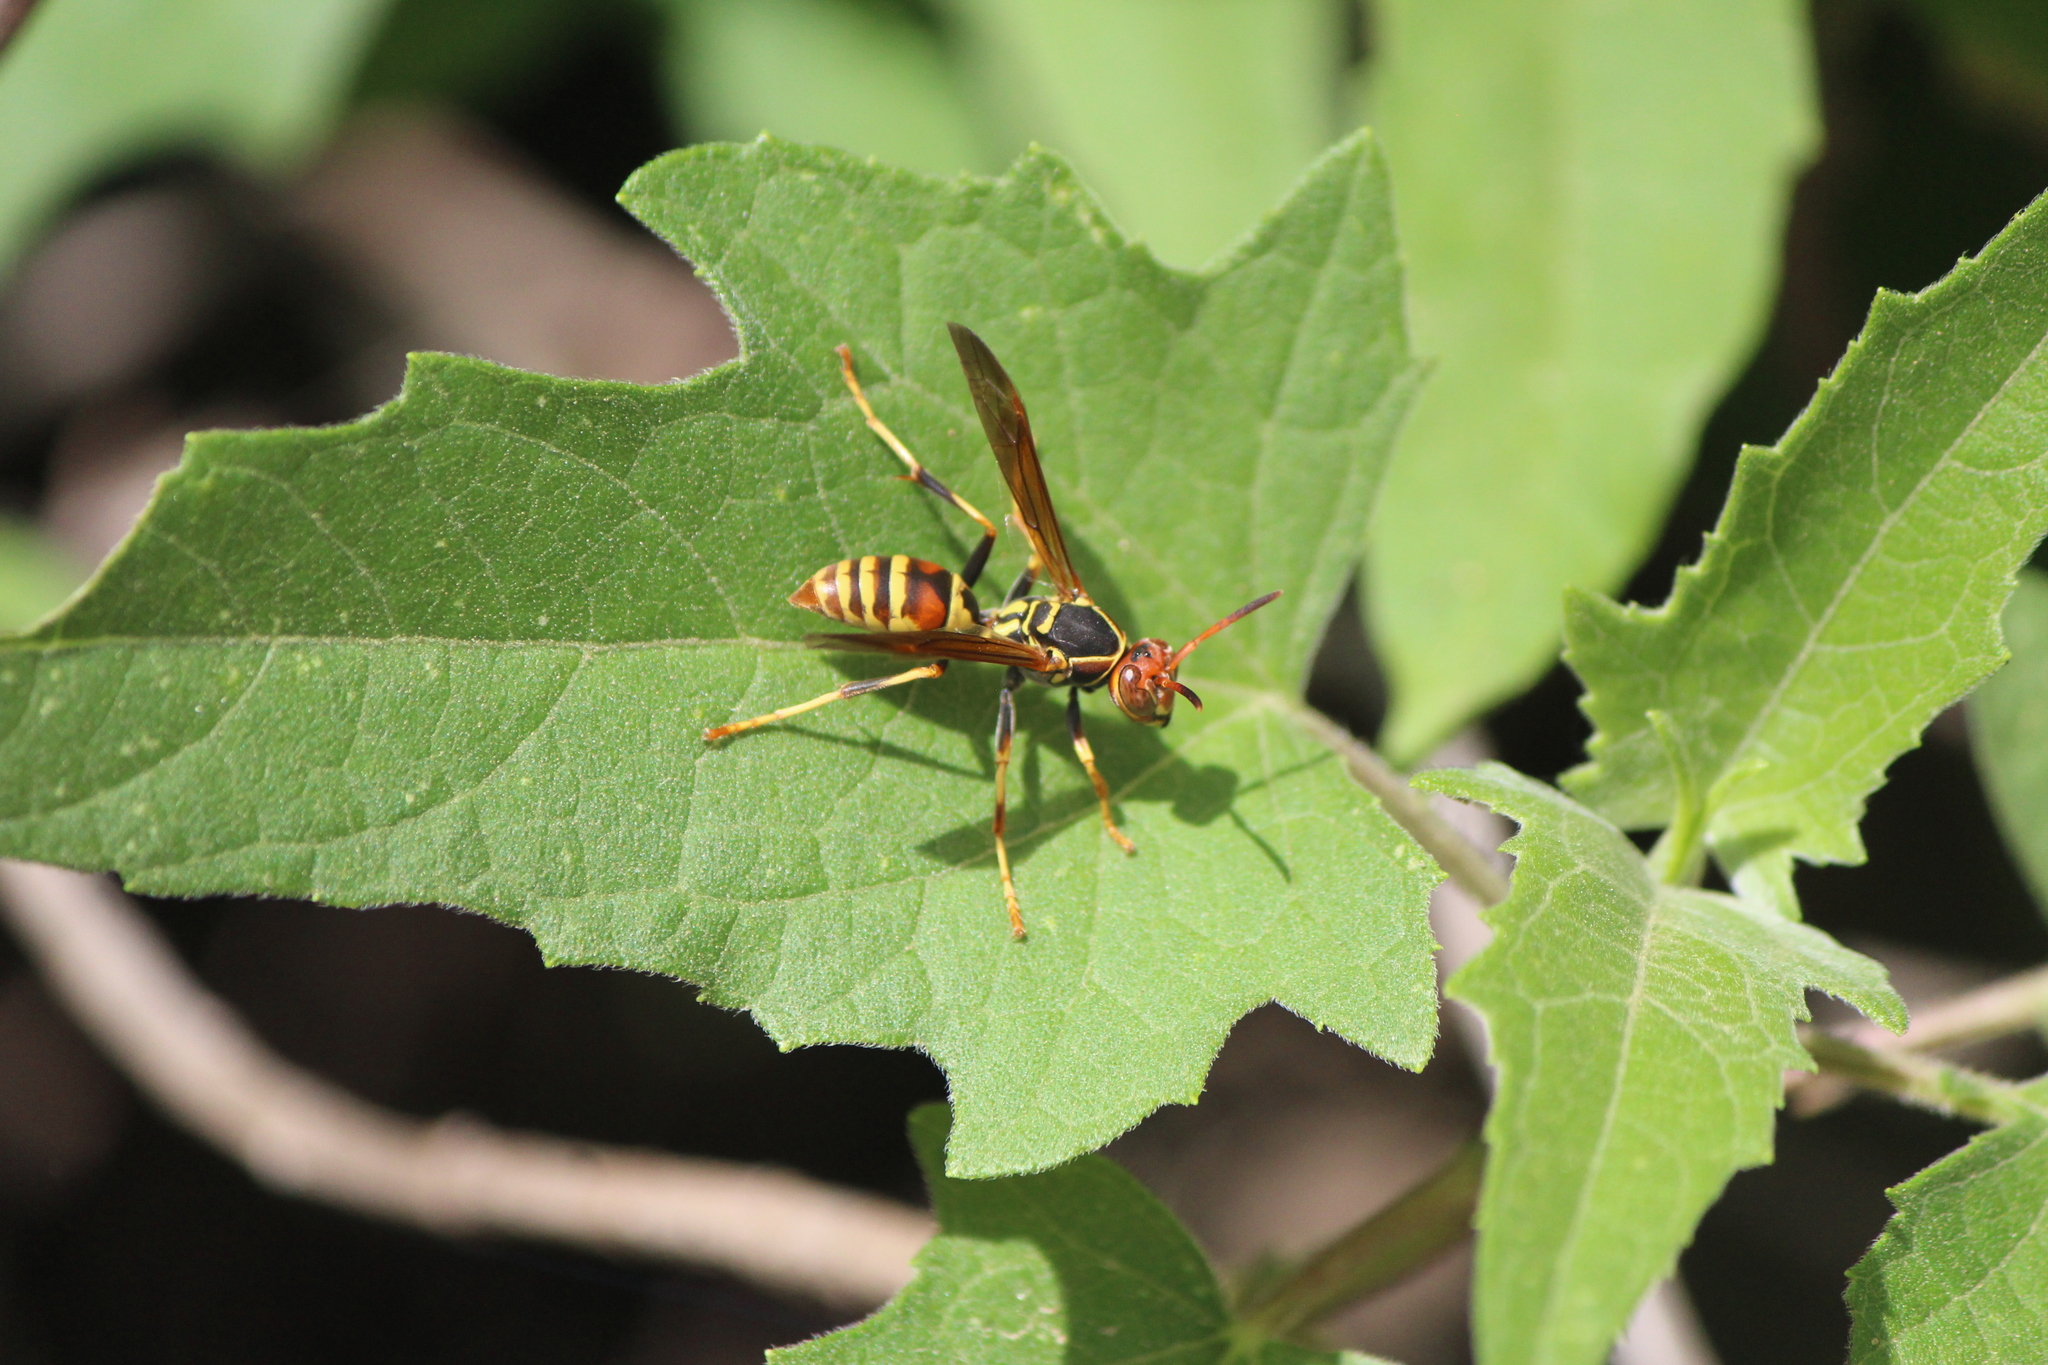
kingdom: Animalia
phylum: Arthropoda
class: Insecta
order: Hymenoptera
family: Eumenidae
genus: Polistes
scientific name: Polistes dorsalis
